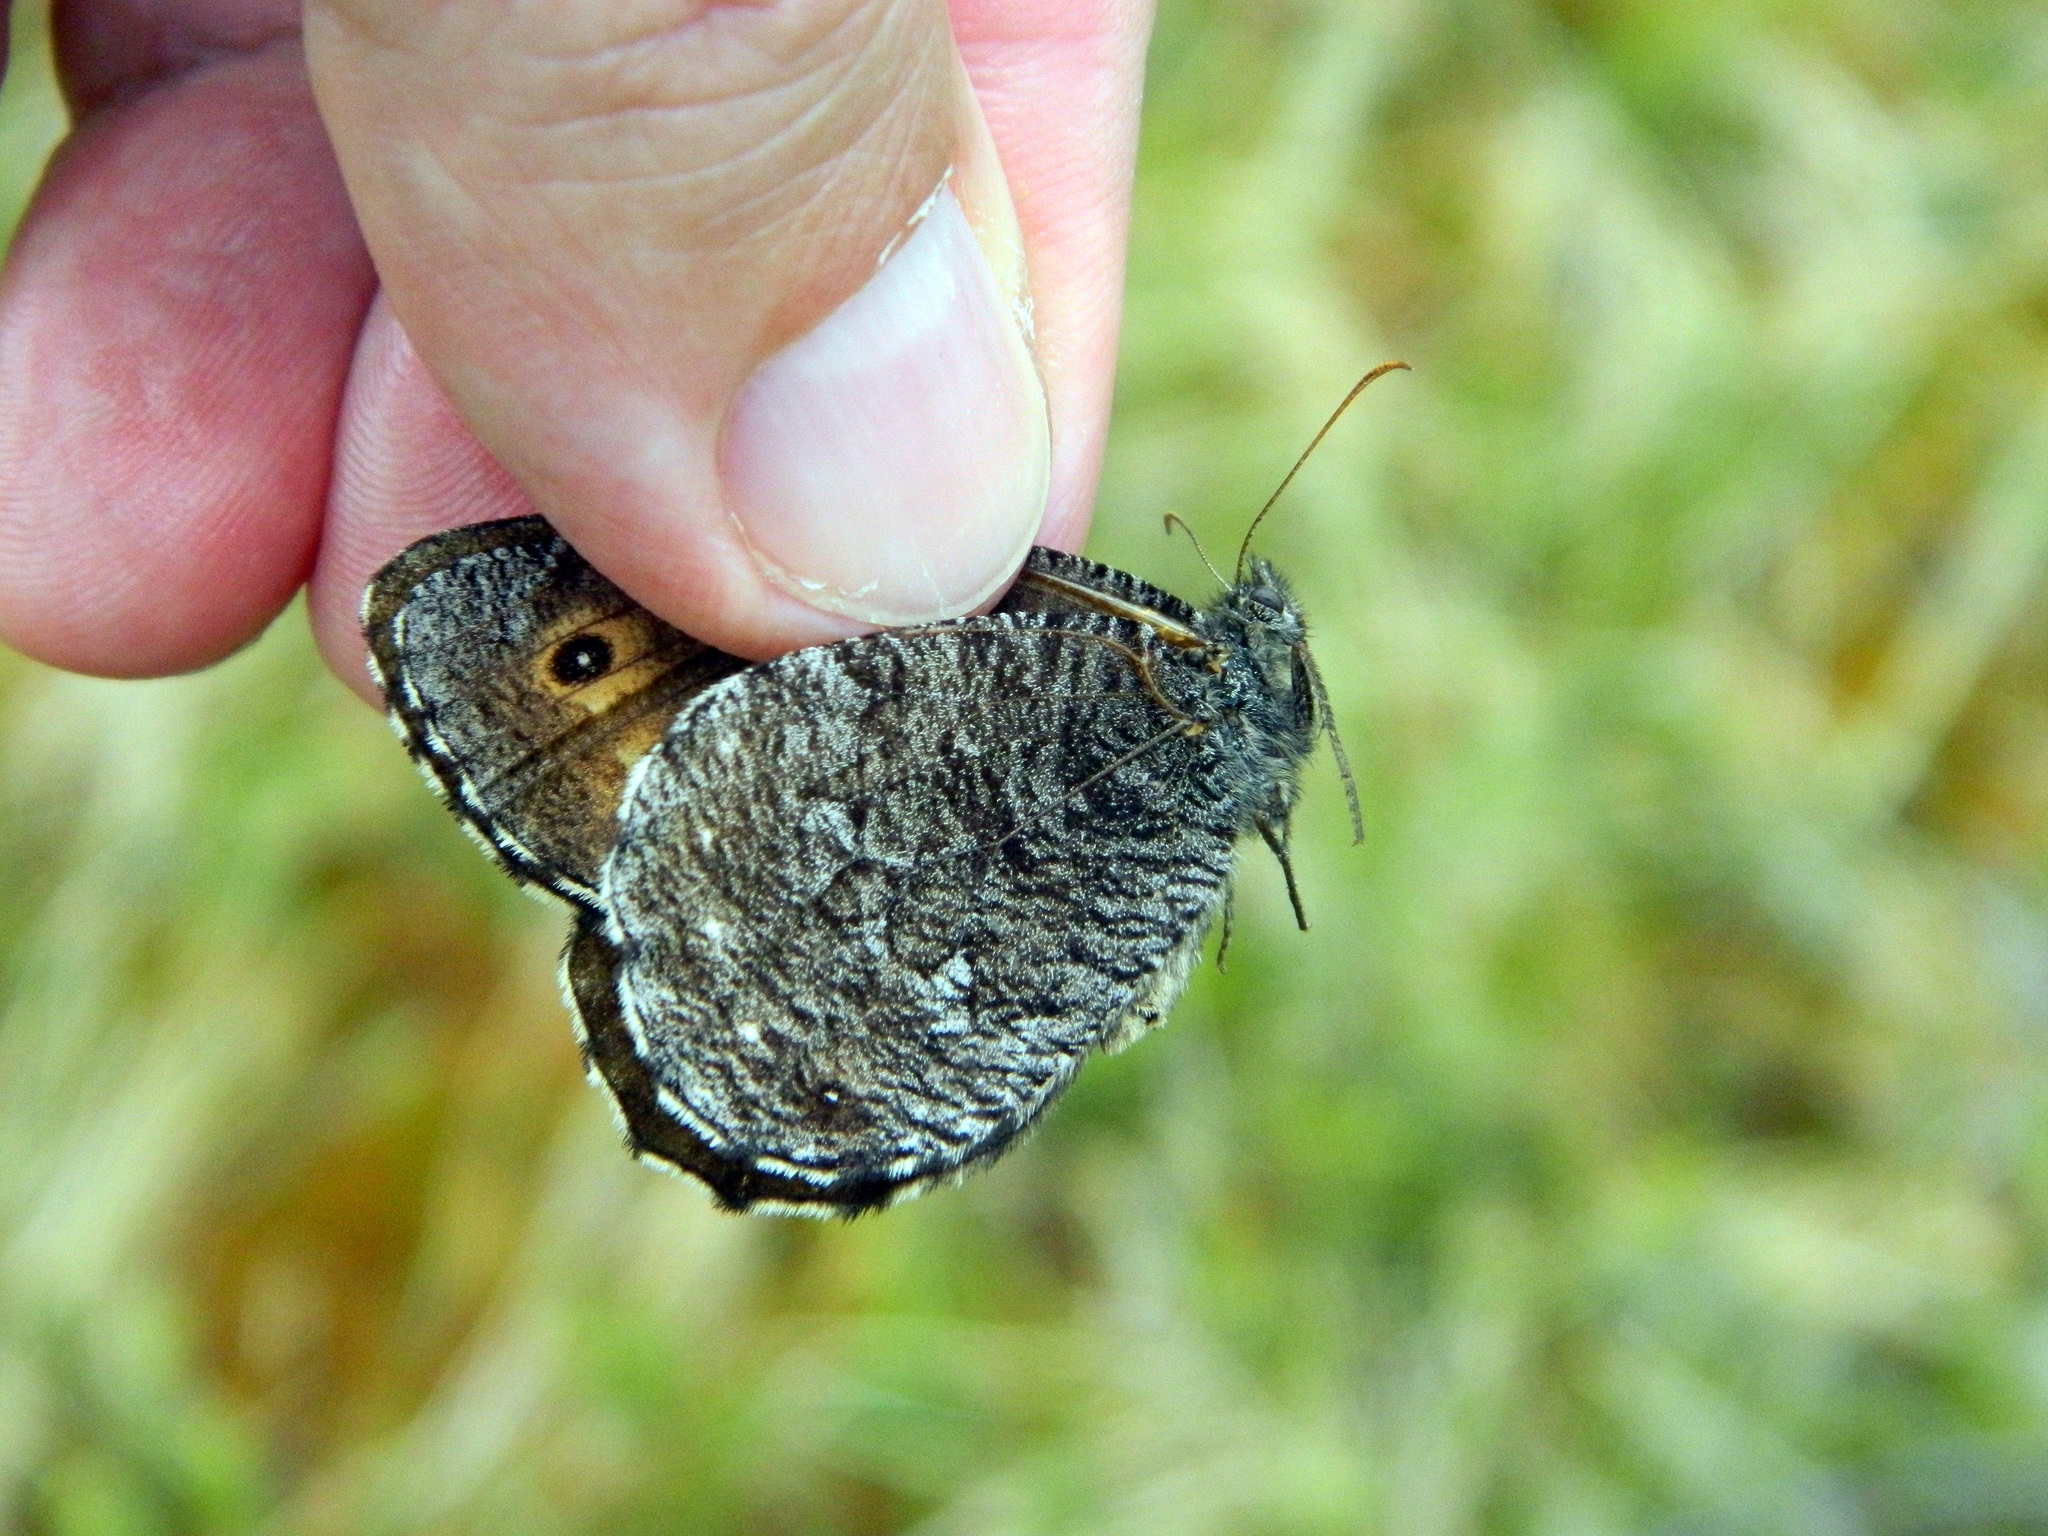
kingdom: Animalia
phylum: Arthropoda
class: Insecta
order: Lepidoptera
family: Nymphalidae
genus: Oeneis
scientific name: Oeneis jutta
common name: Baltic grayling
